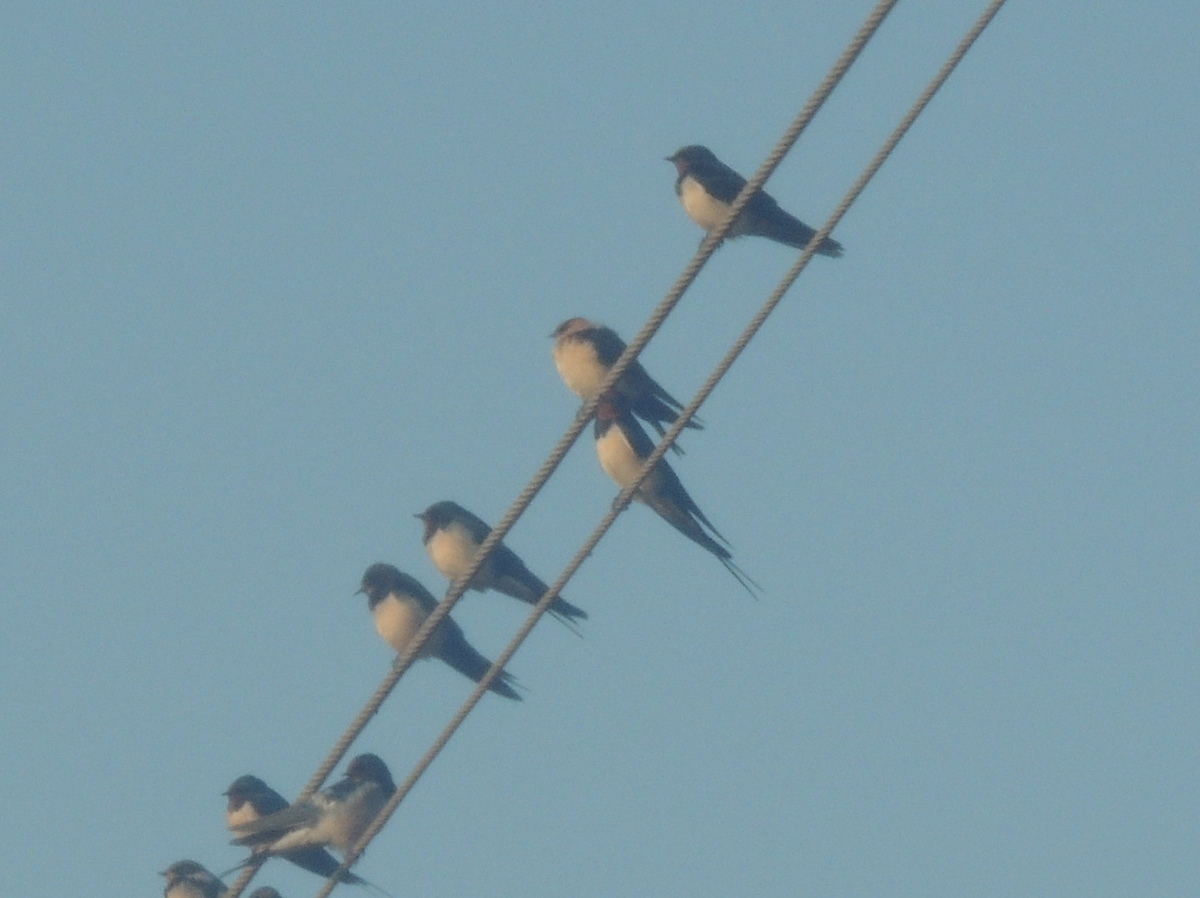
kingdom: Animalia
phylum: Chordata
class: Aves
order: Passeriformes
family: Hirundinidae
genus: Hirundo
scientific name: Hirundo rustica
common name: Barn swallow
